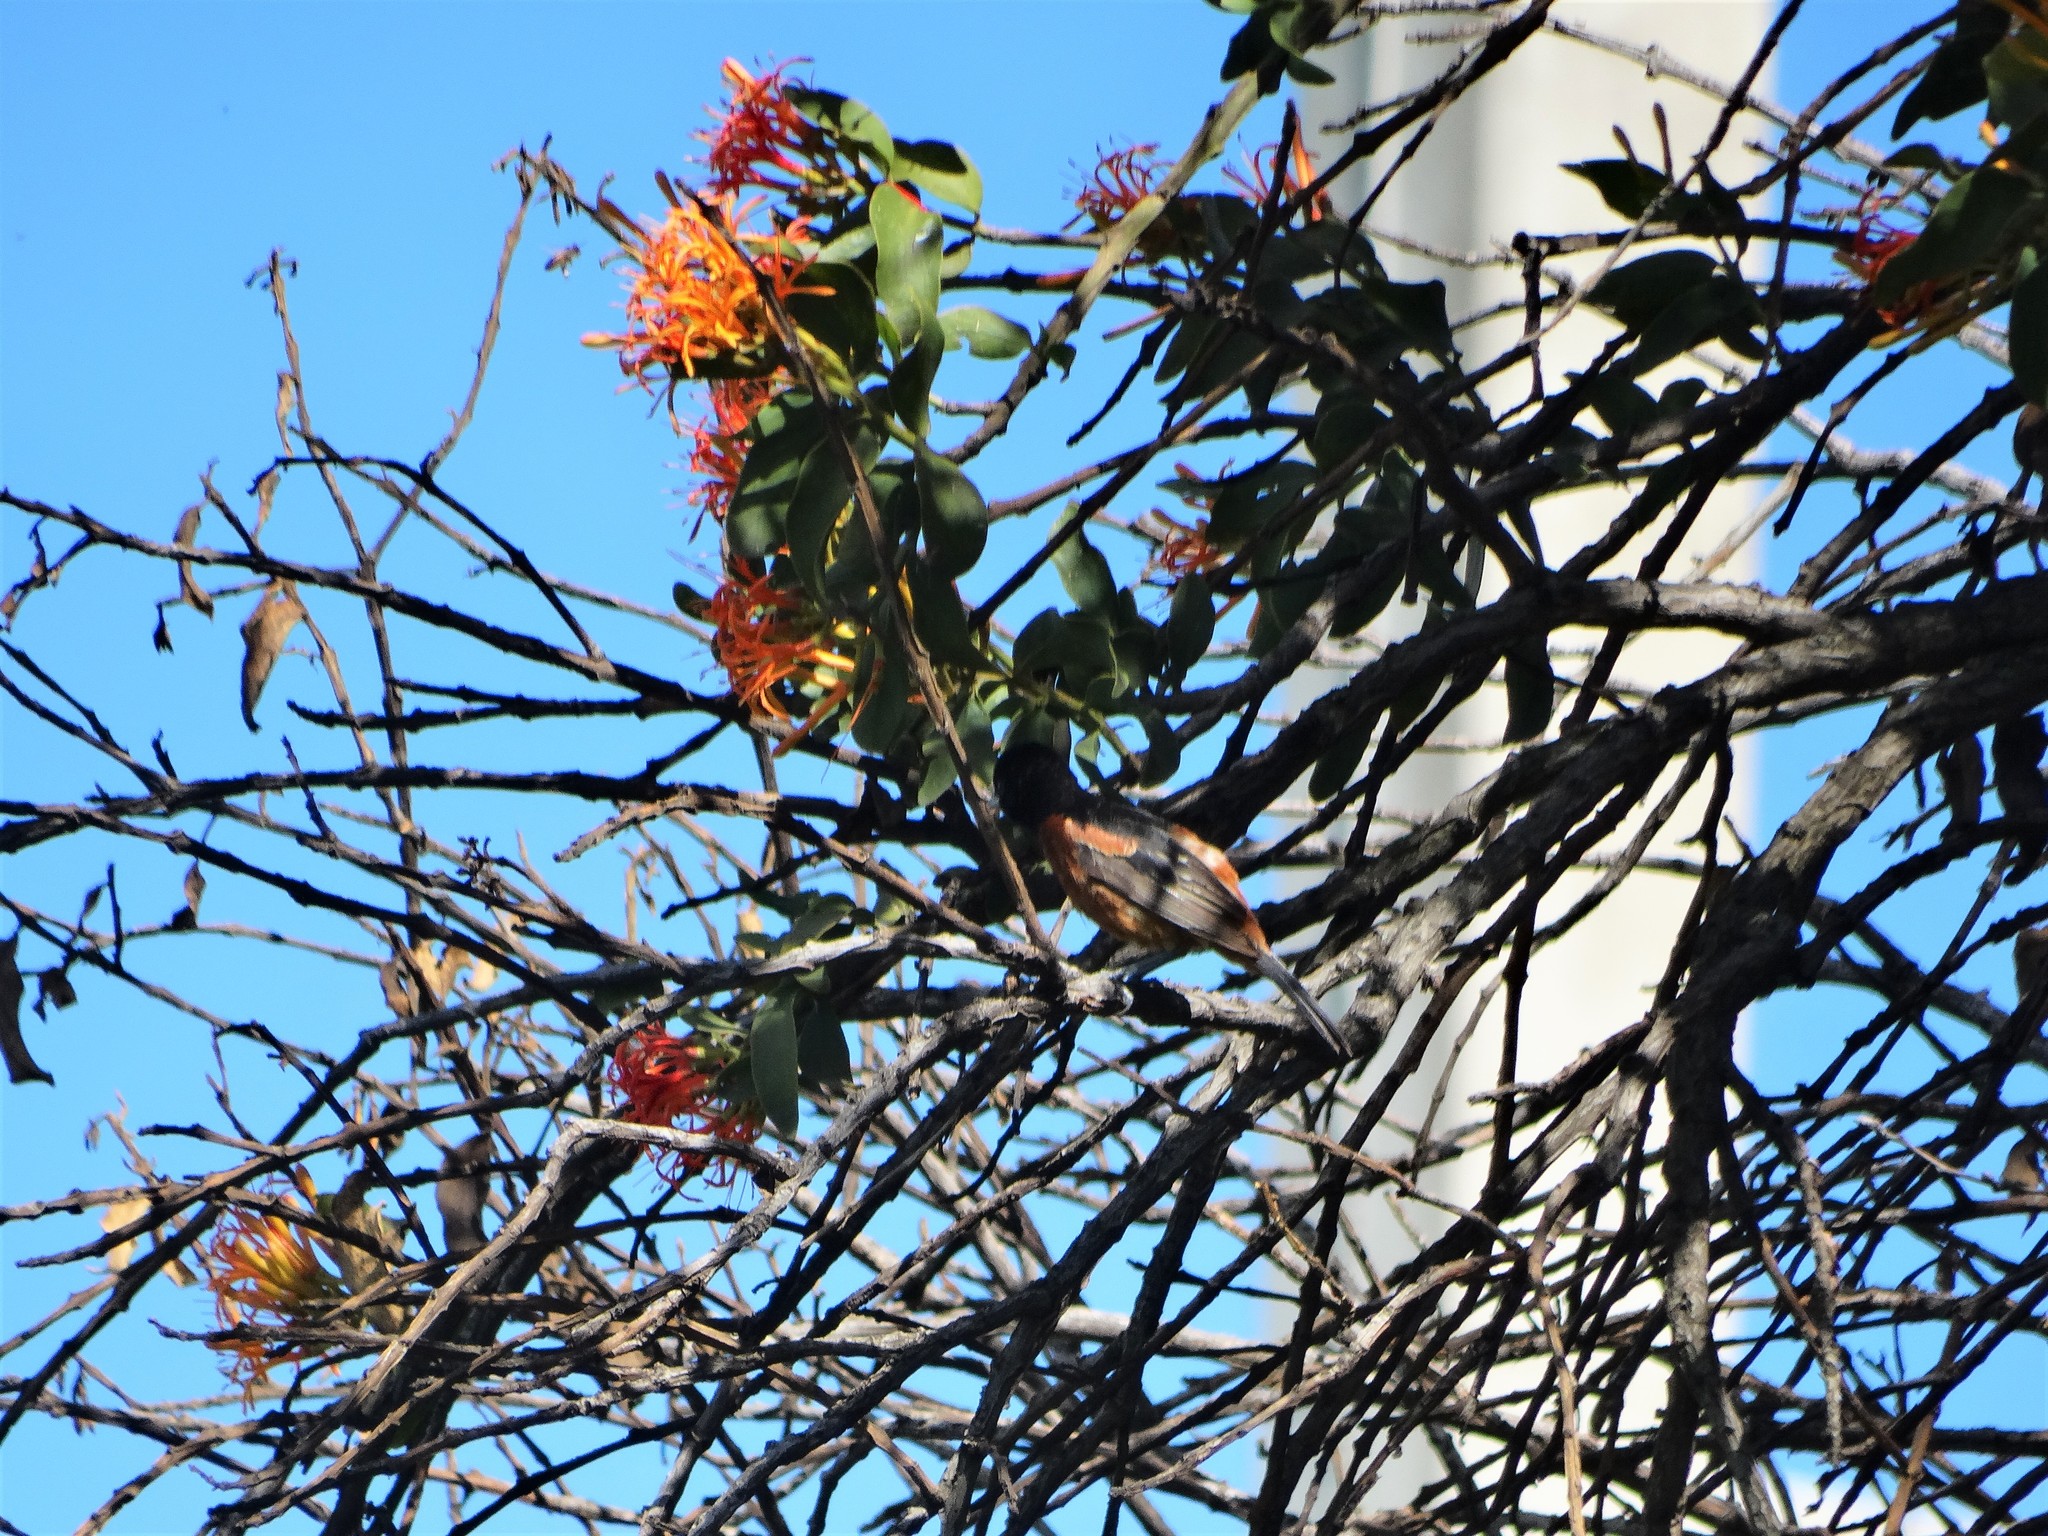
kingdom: Animalia
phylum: Chordata
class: Aves
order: Passeriformes
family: Icteridae
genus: Icterus
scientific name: Icterus spurius
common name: Orchard oriole
